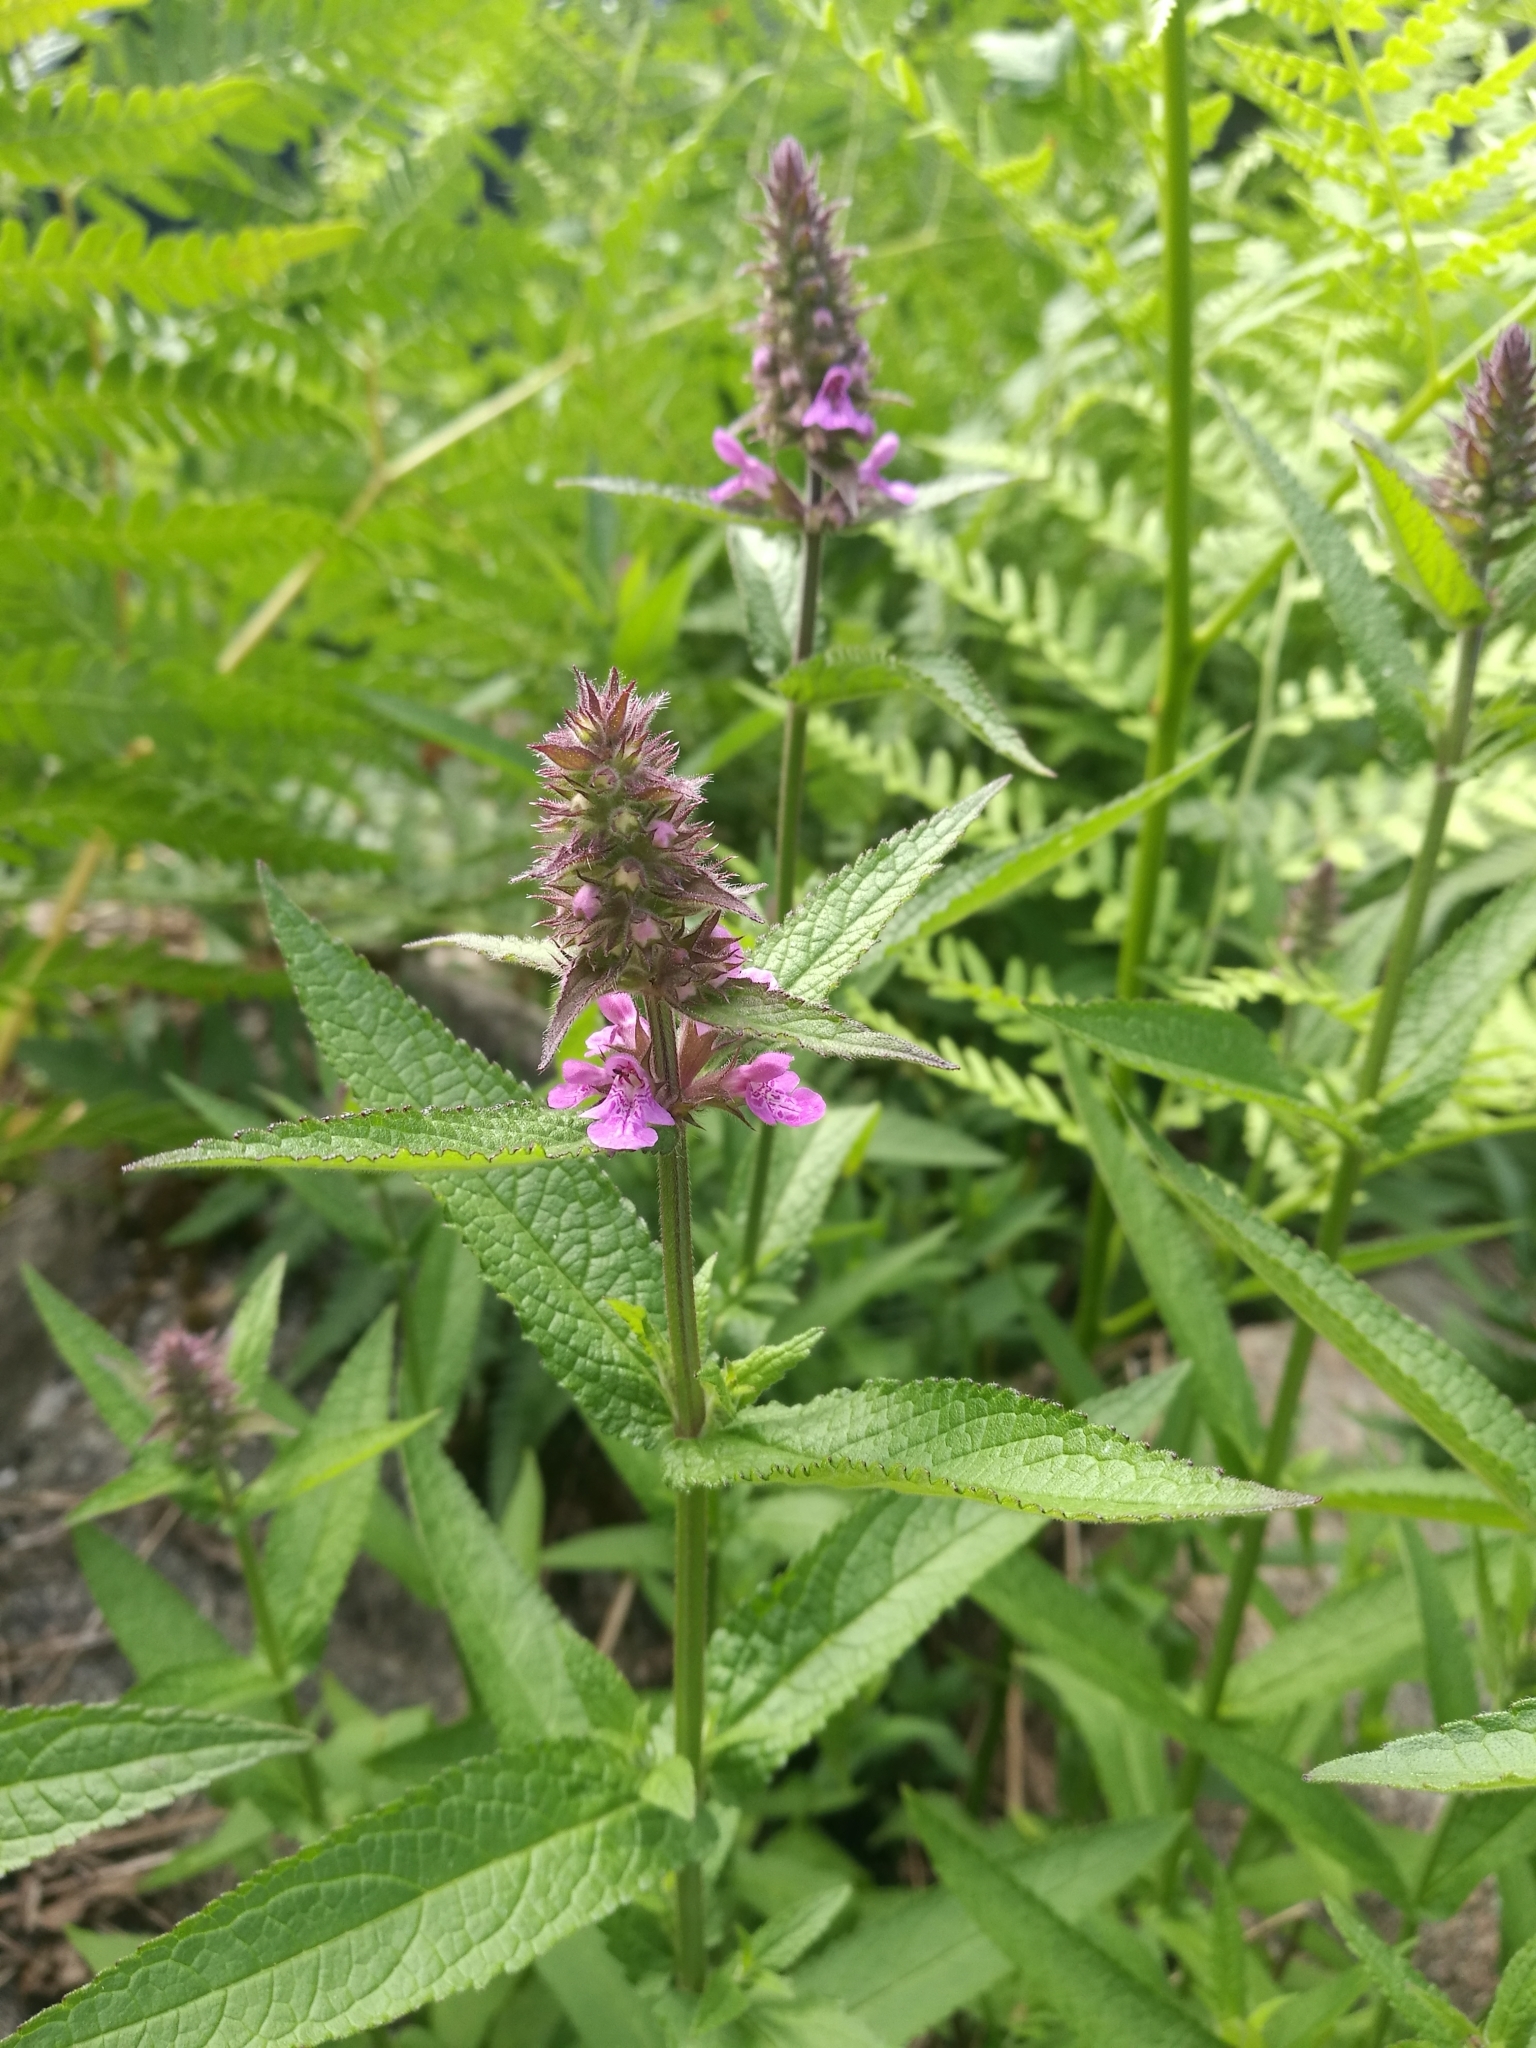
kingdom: Plantae
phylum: Tracheophyta
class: Magnoliopsida
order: Lamiales
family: Lamiaceae
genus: Stachys
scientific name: Stachys palustris
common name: Marsh woundwort
